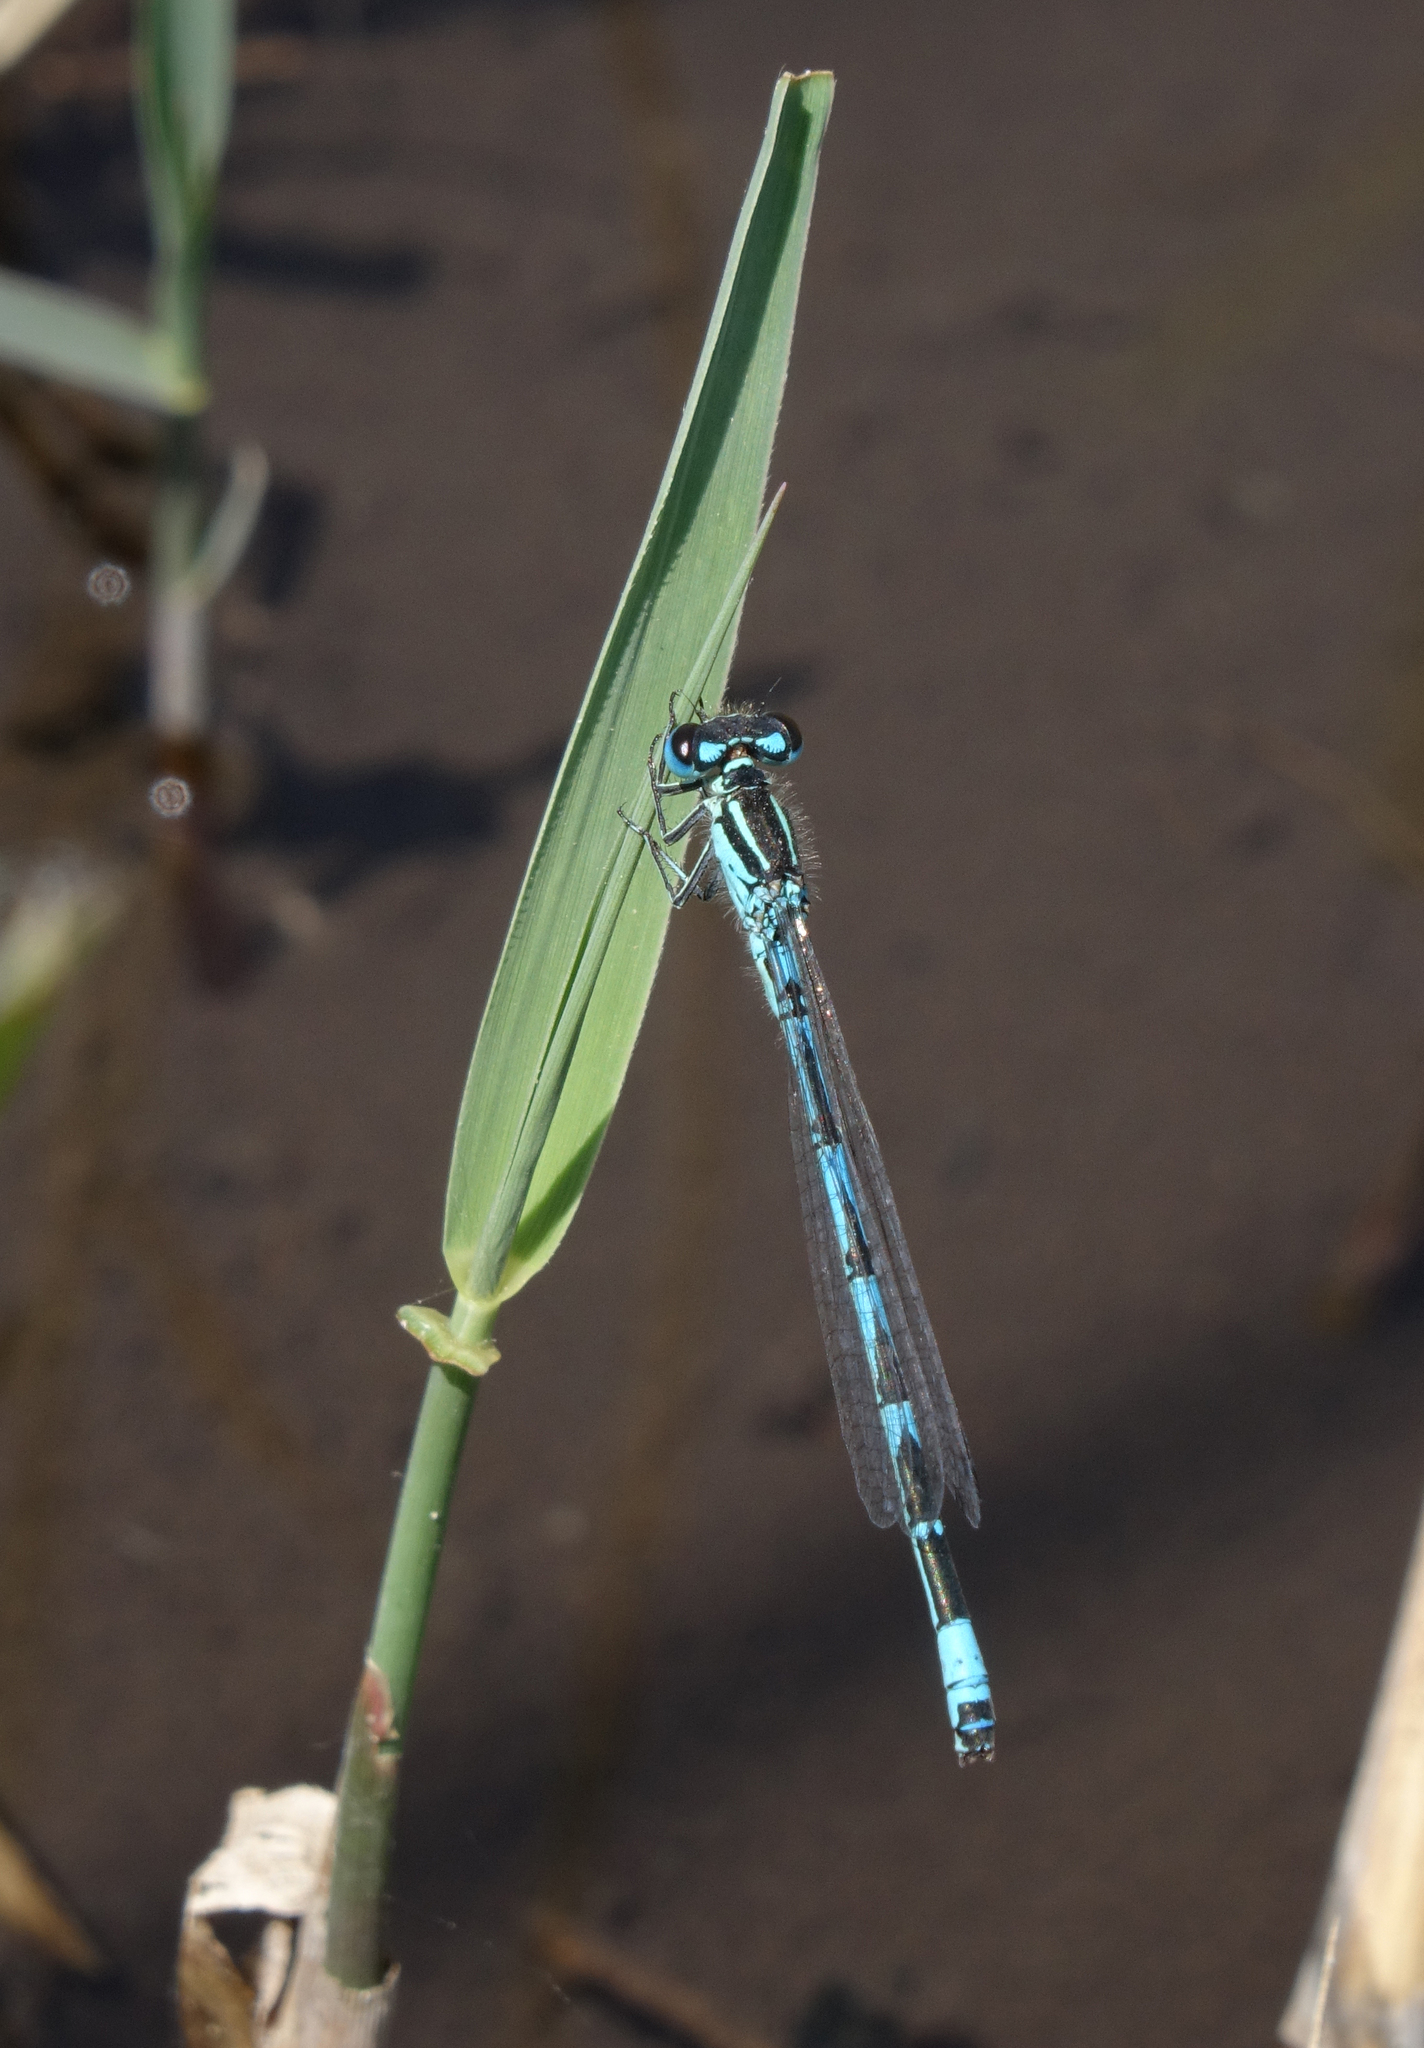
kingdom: Animalia
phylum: Arthropoda
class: Insecta
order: Odonata
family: Coenagrionidae
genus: Coenagrion
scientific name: Coenagrion ornatum
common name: Ornate bluet
